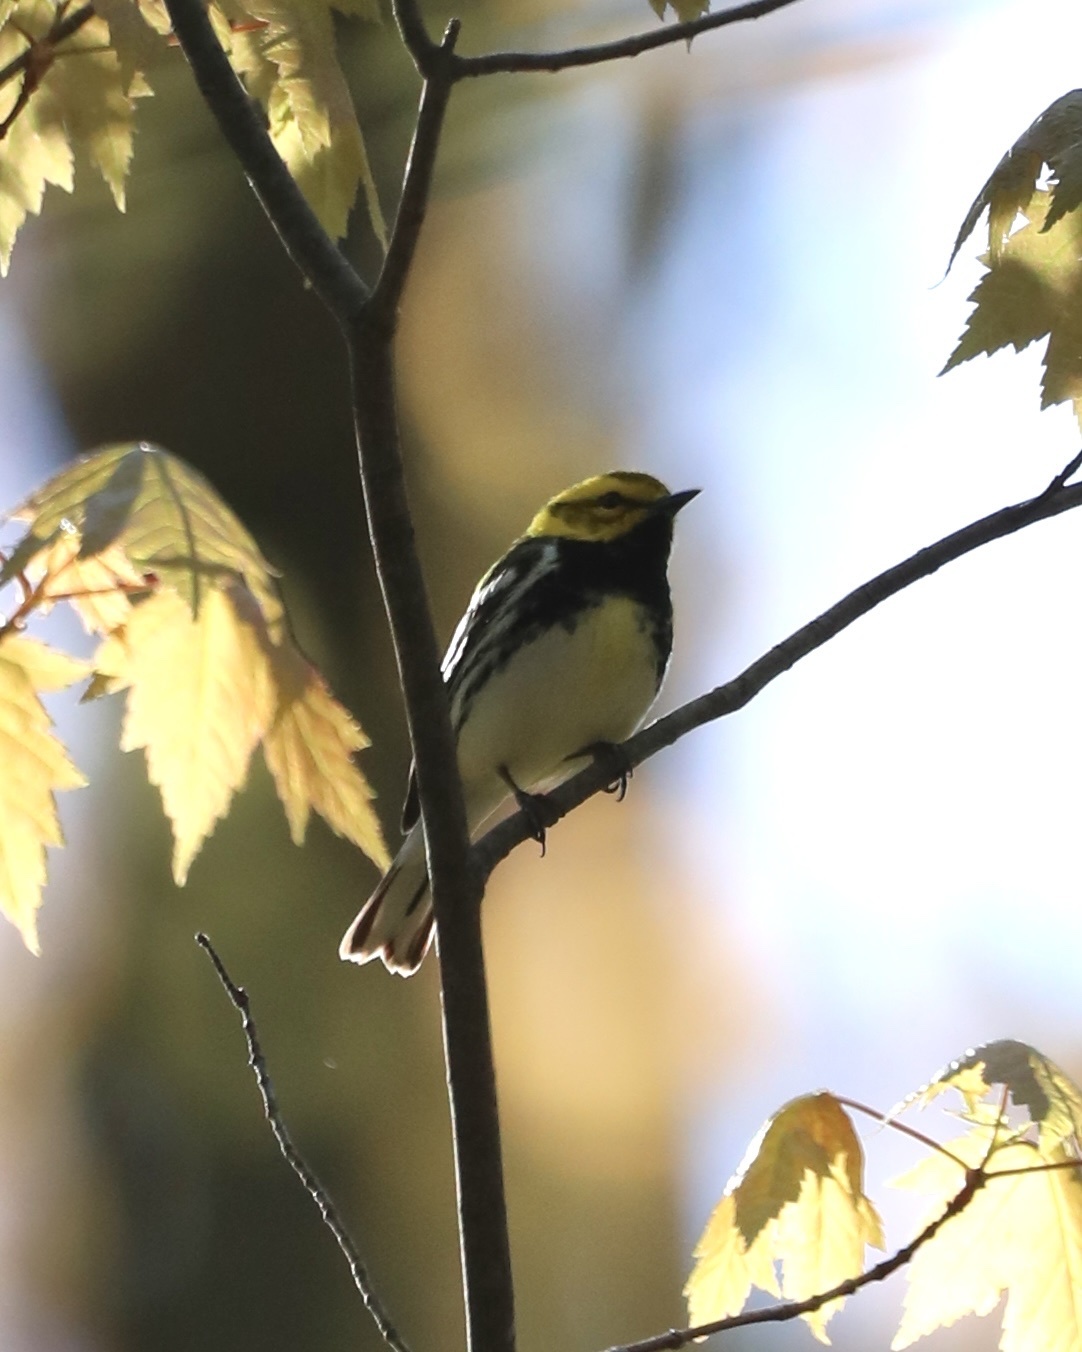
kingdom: Animalia
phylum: Chordata
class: Aves
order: Passeriformes
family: Parulidae
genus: Setophaga
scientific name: Setophaga virens
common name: Black-throated green warbler
